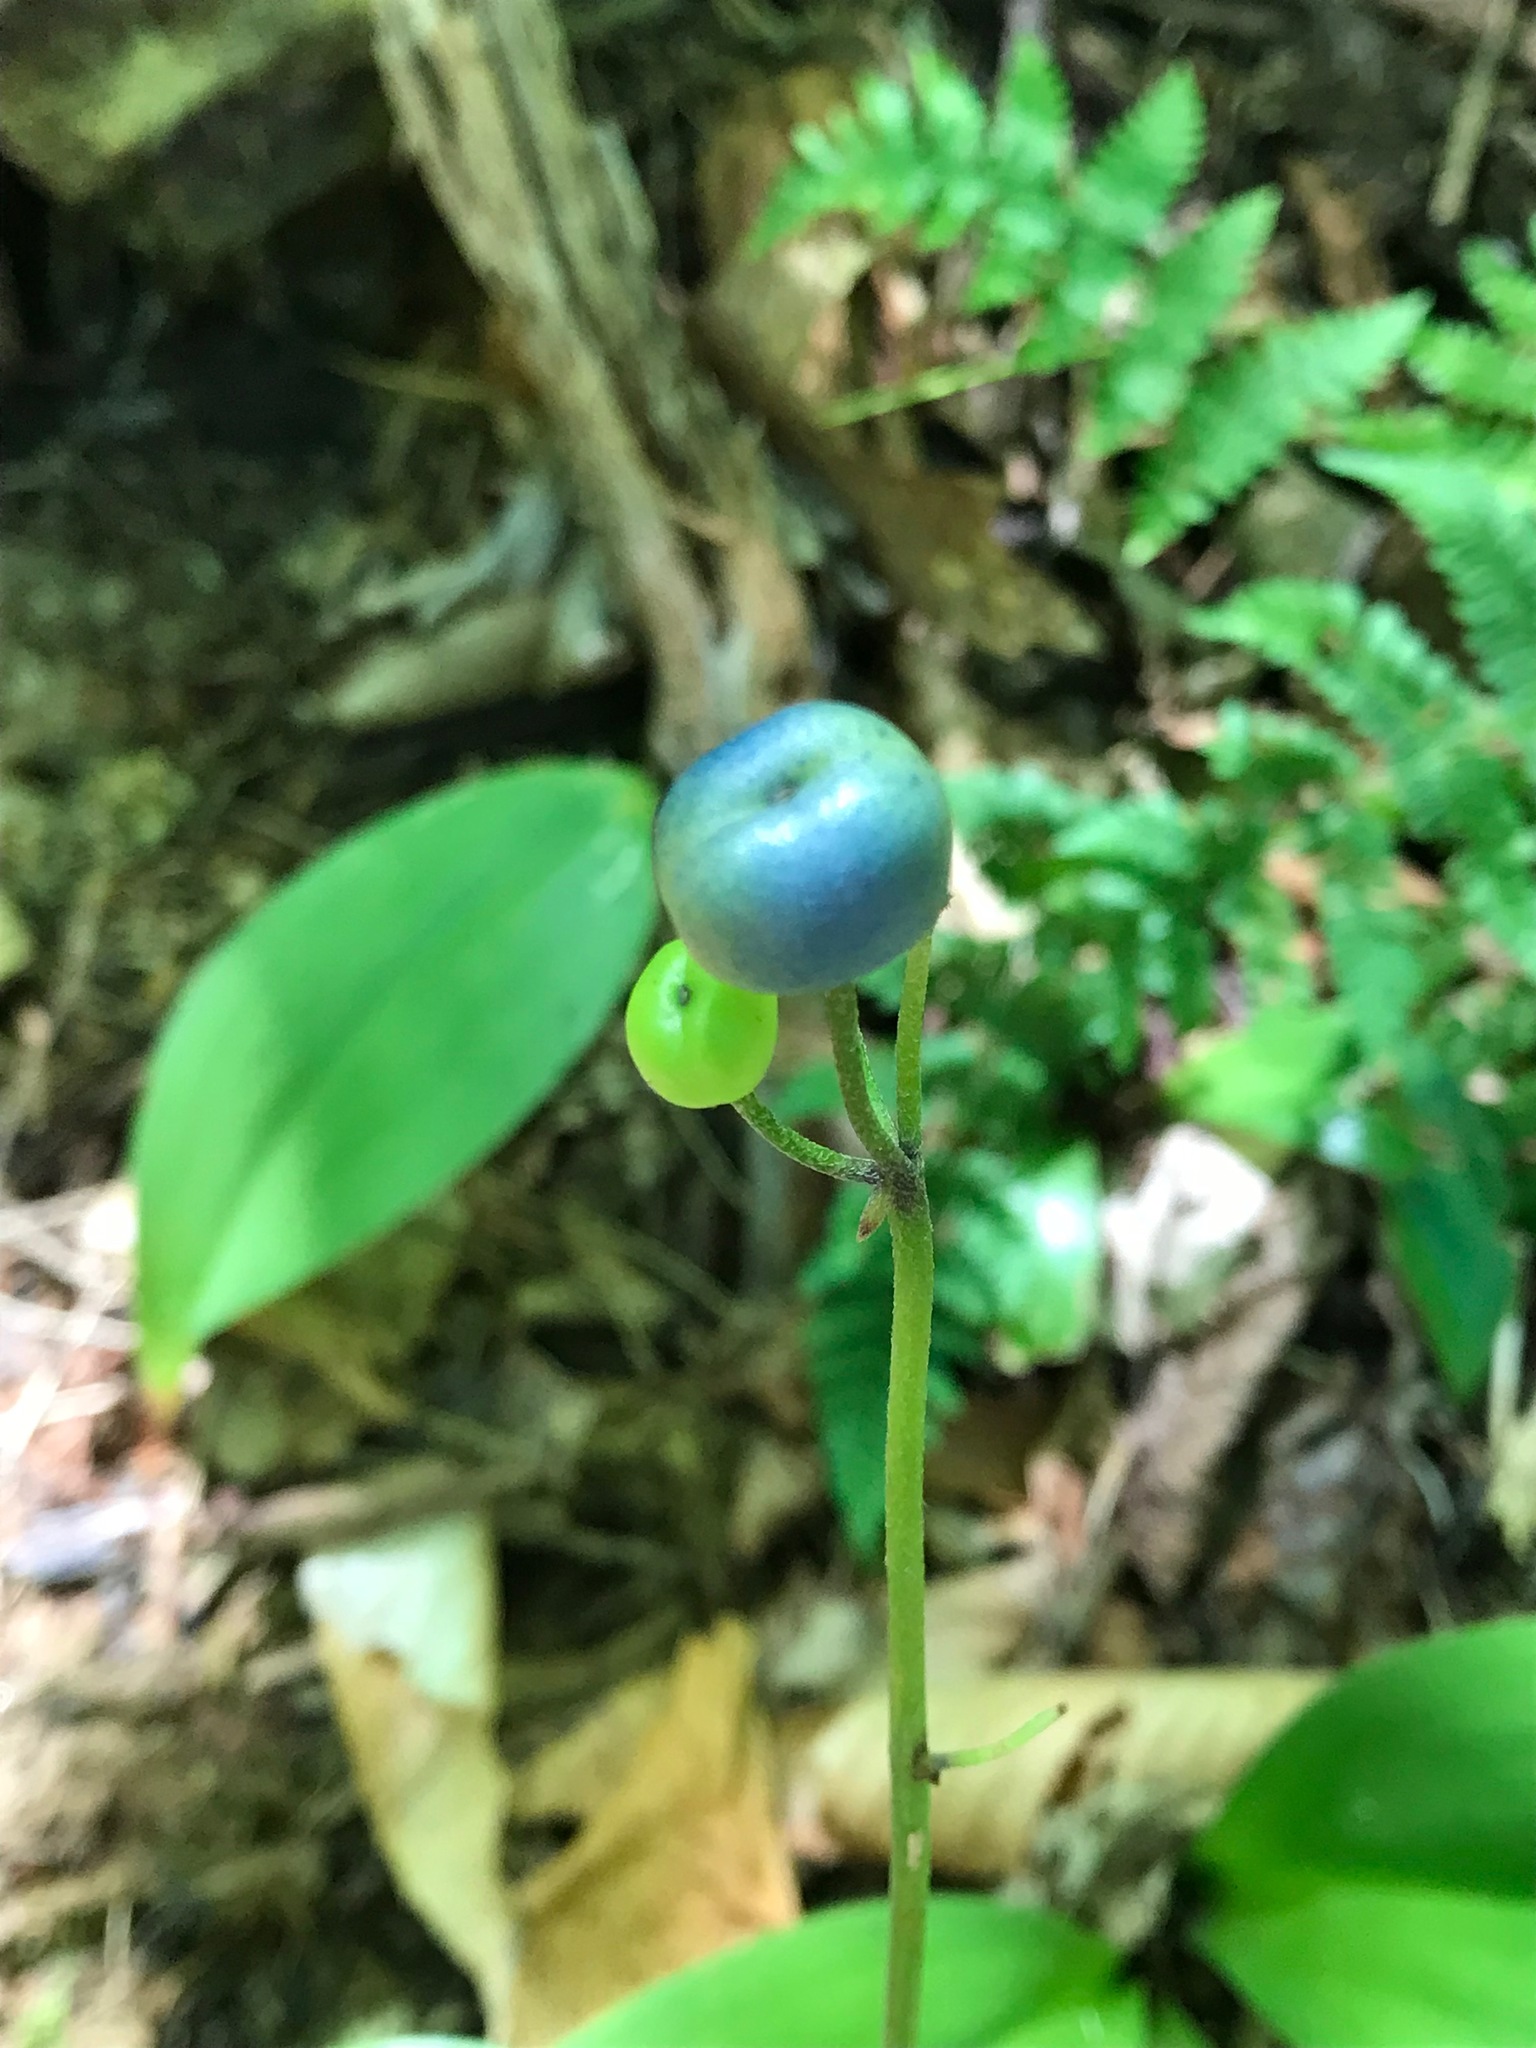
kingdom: Plantae
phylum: Tracheophyta
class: Liliopsida
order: Liliales
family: Liliaceae
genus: Clintonia
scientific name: Clintonia borealis
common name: Yellow clintonia
